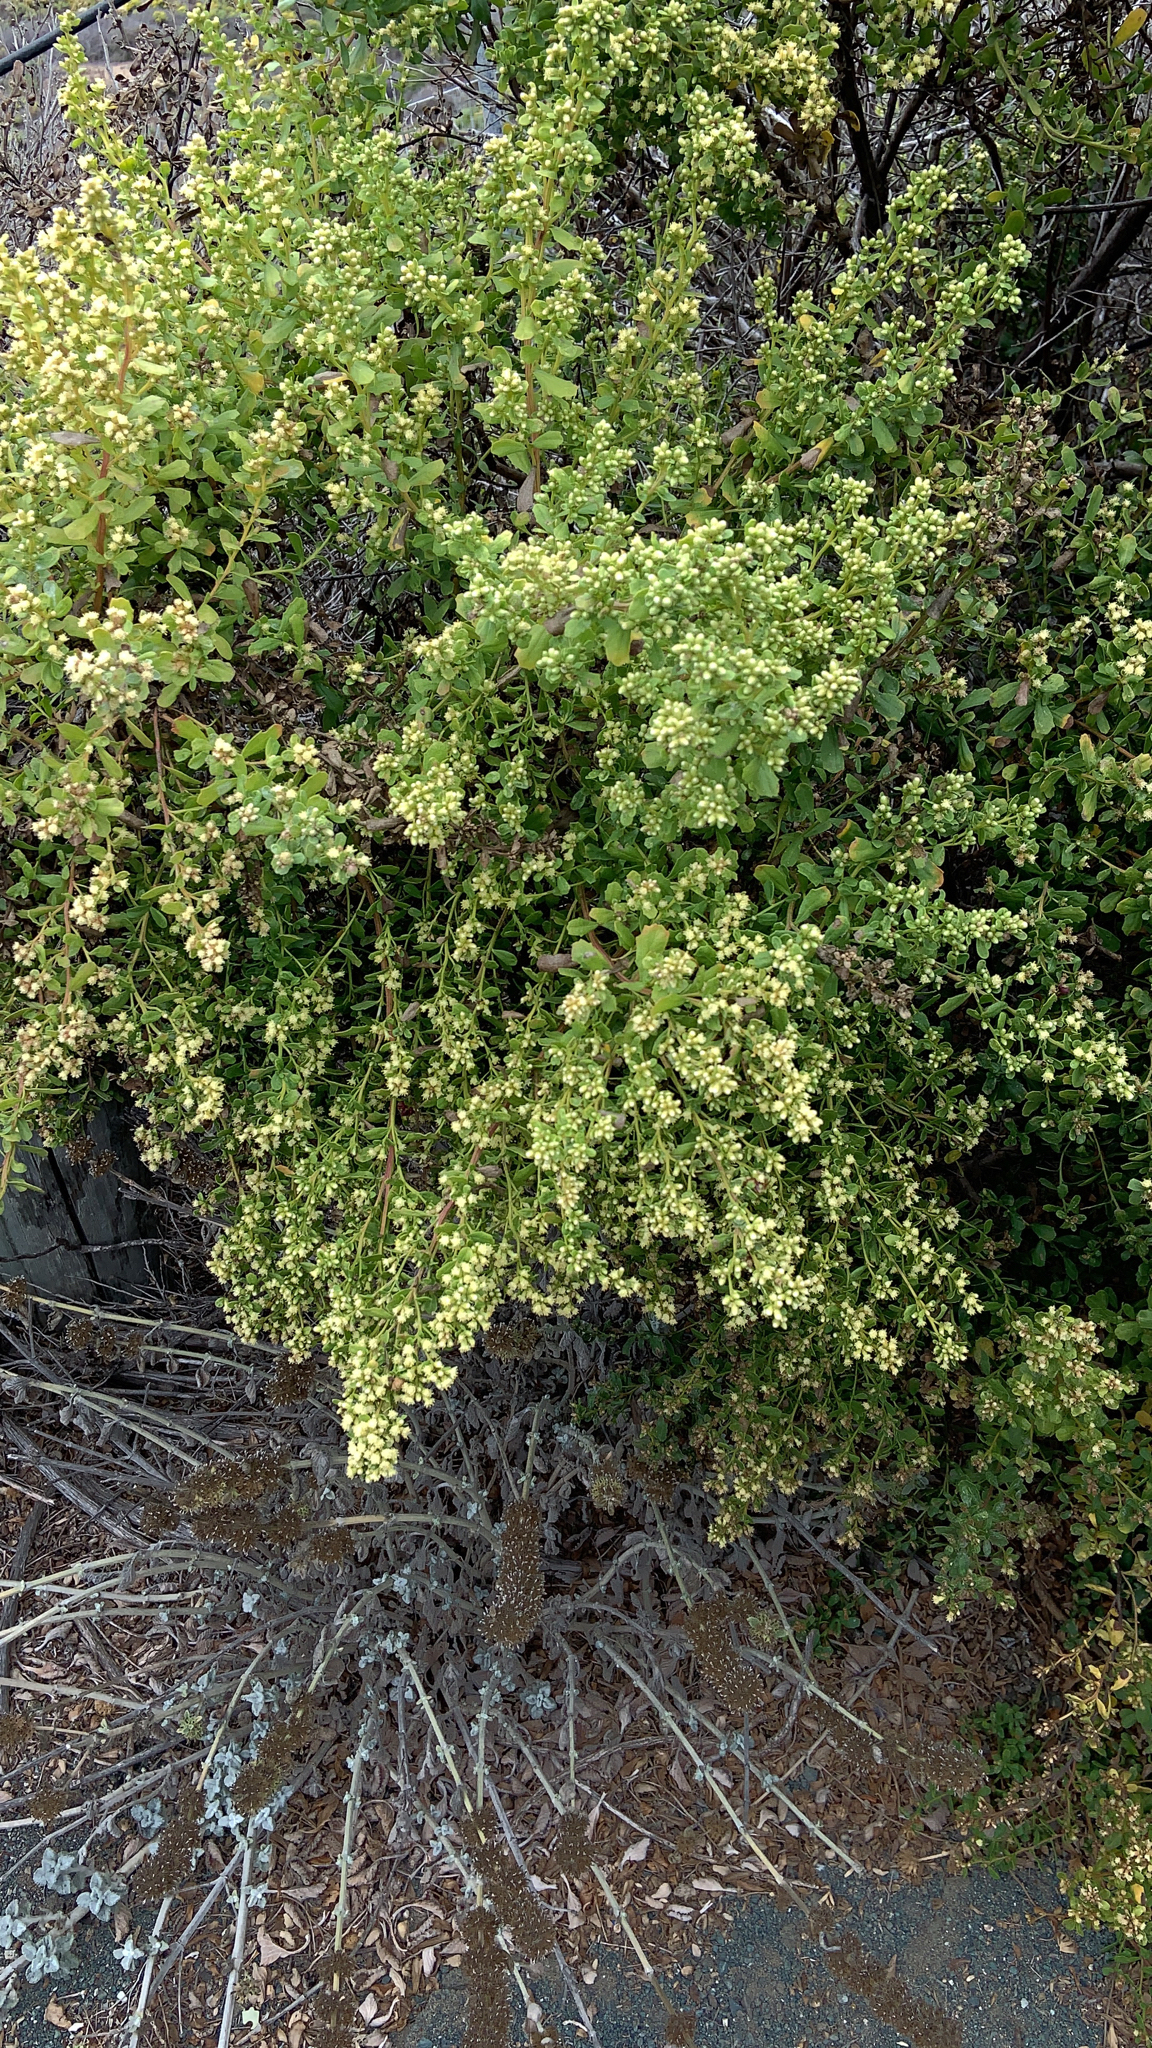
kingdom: Plantae
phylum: Tracheophyta
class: Magnoliopsida
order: Asterales
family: Asteraceae
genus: Baccharis
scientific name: Baccharis pilularis
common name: Coyotebrush
